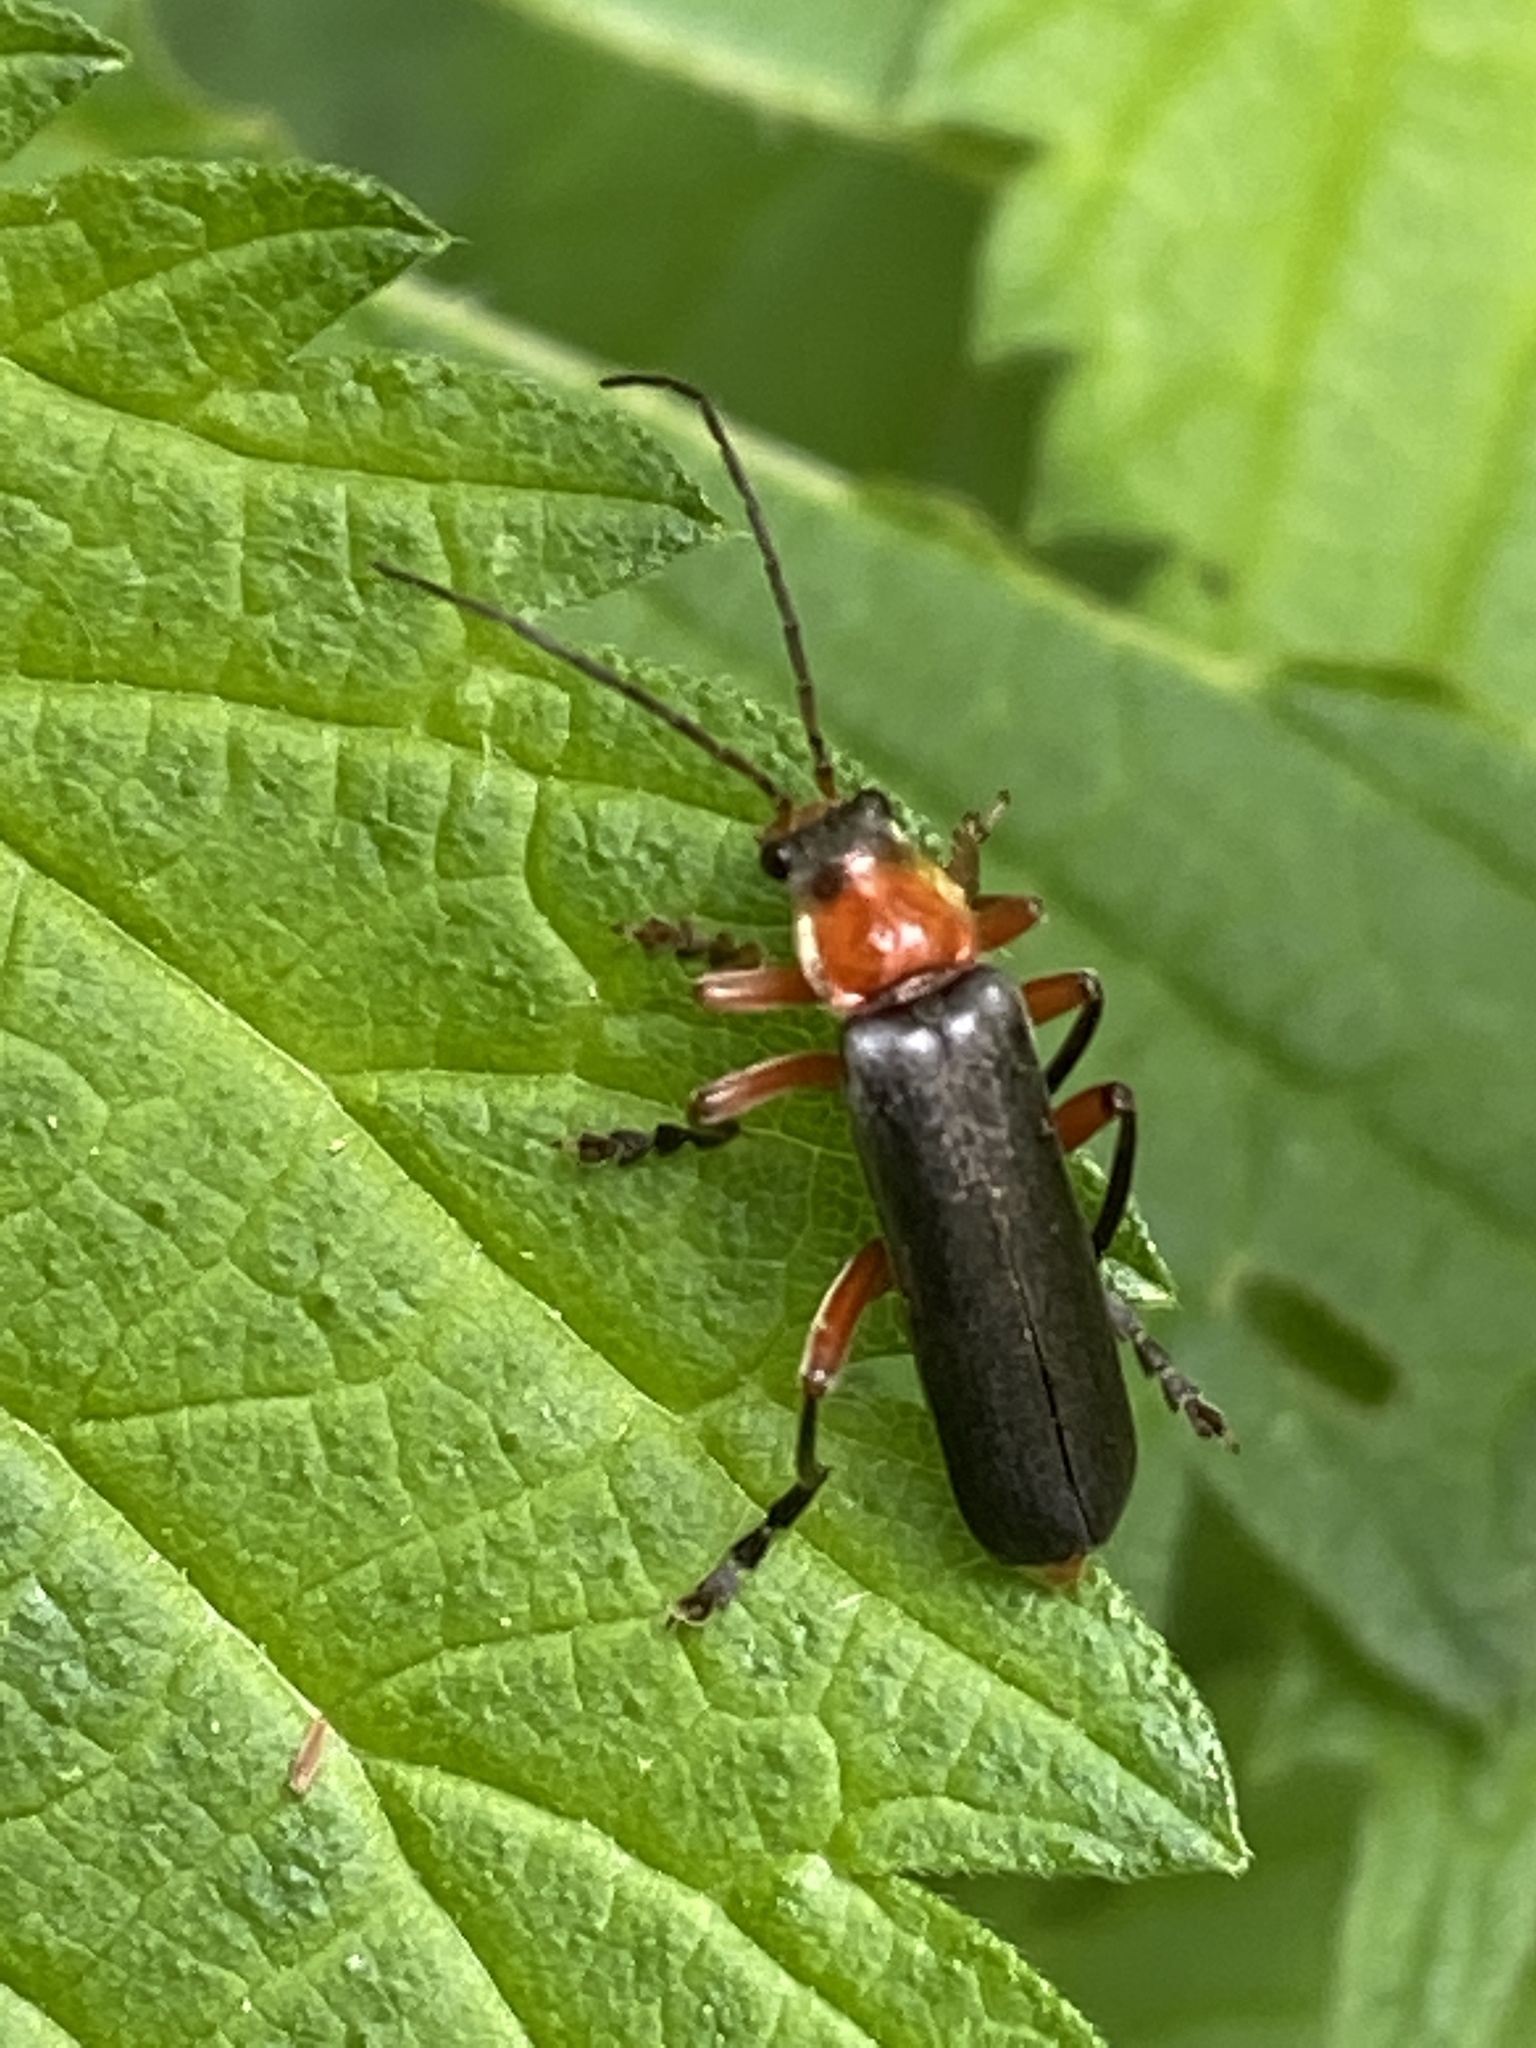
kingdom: Animalia
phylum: Arthropoda
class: Insecta
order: Coleoptera
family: Cantharidae
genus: Cantharis
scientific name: Cantharis pellucida
